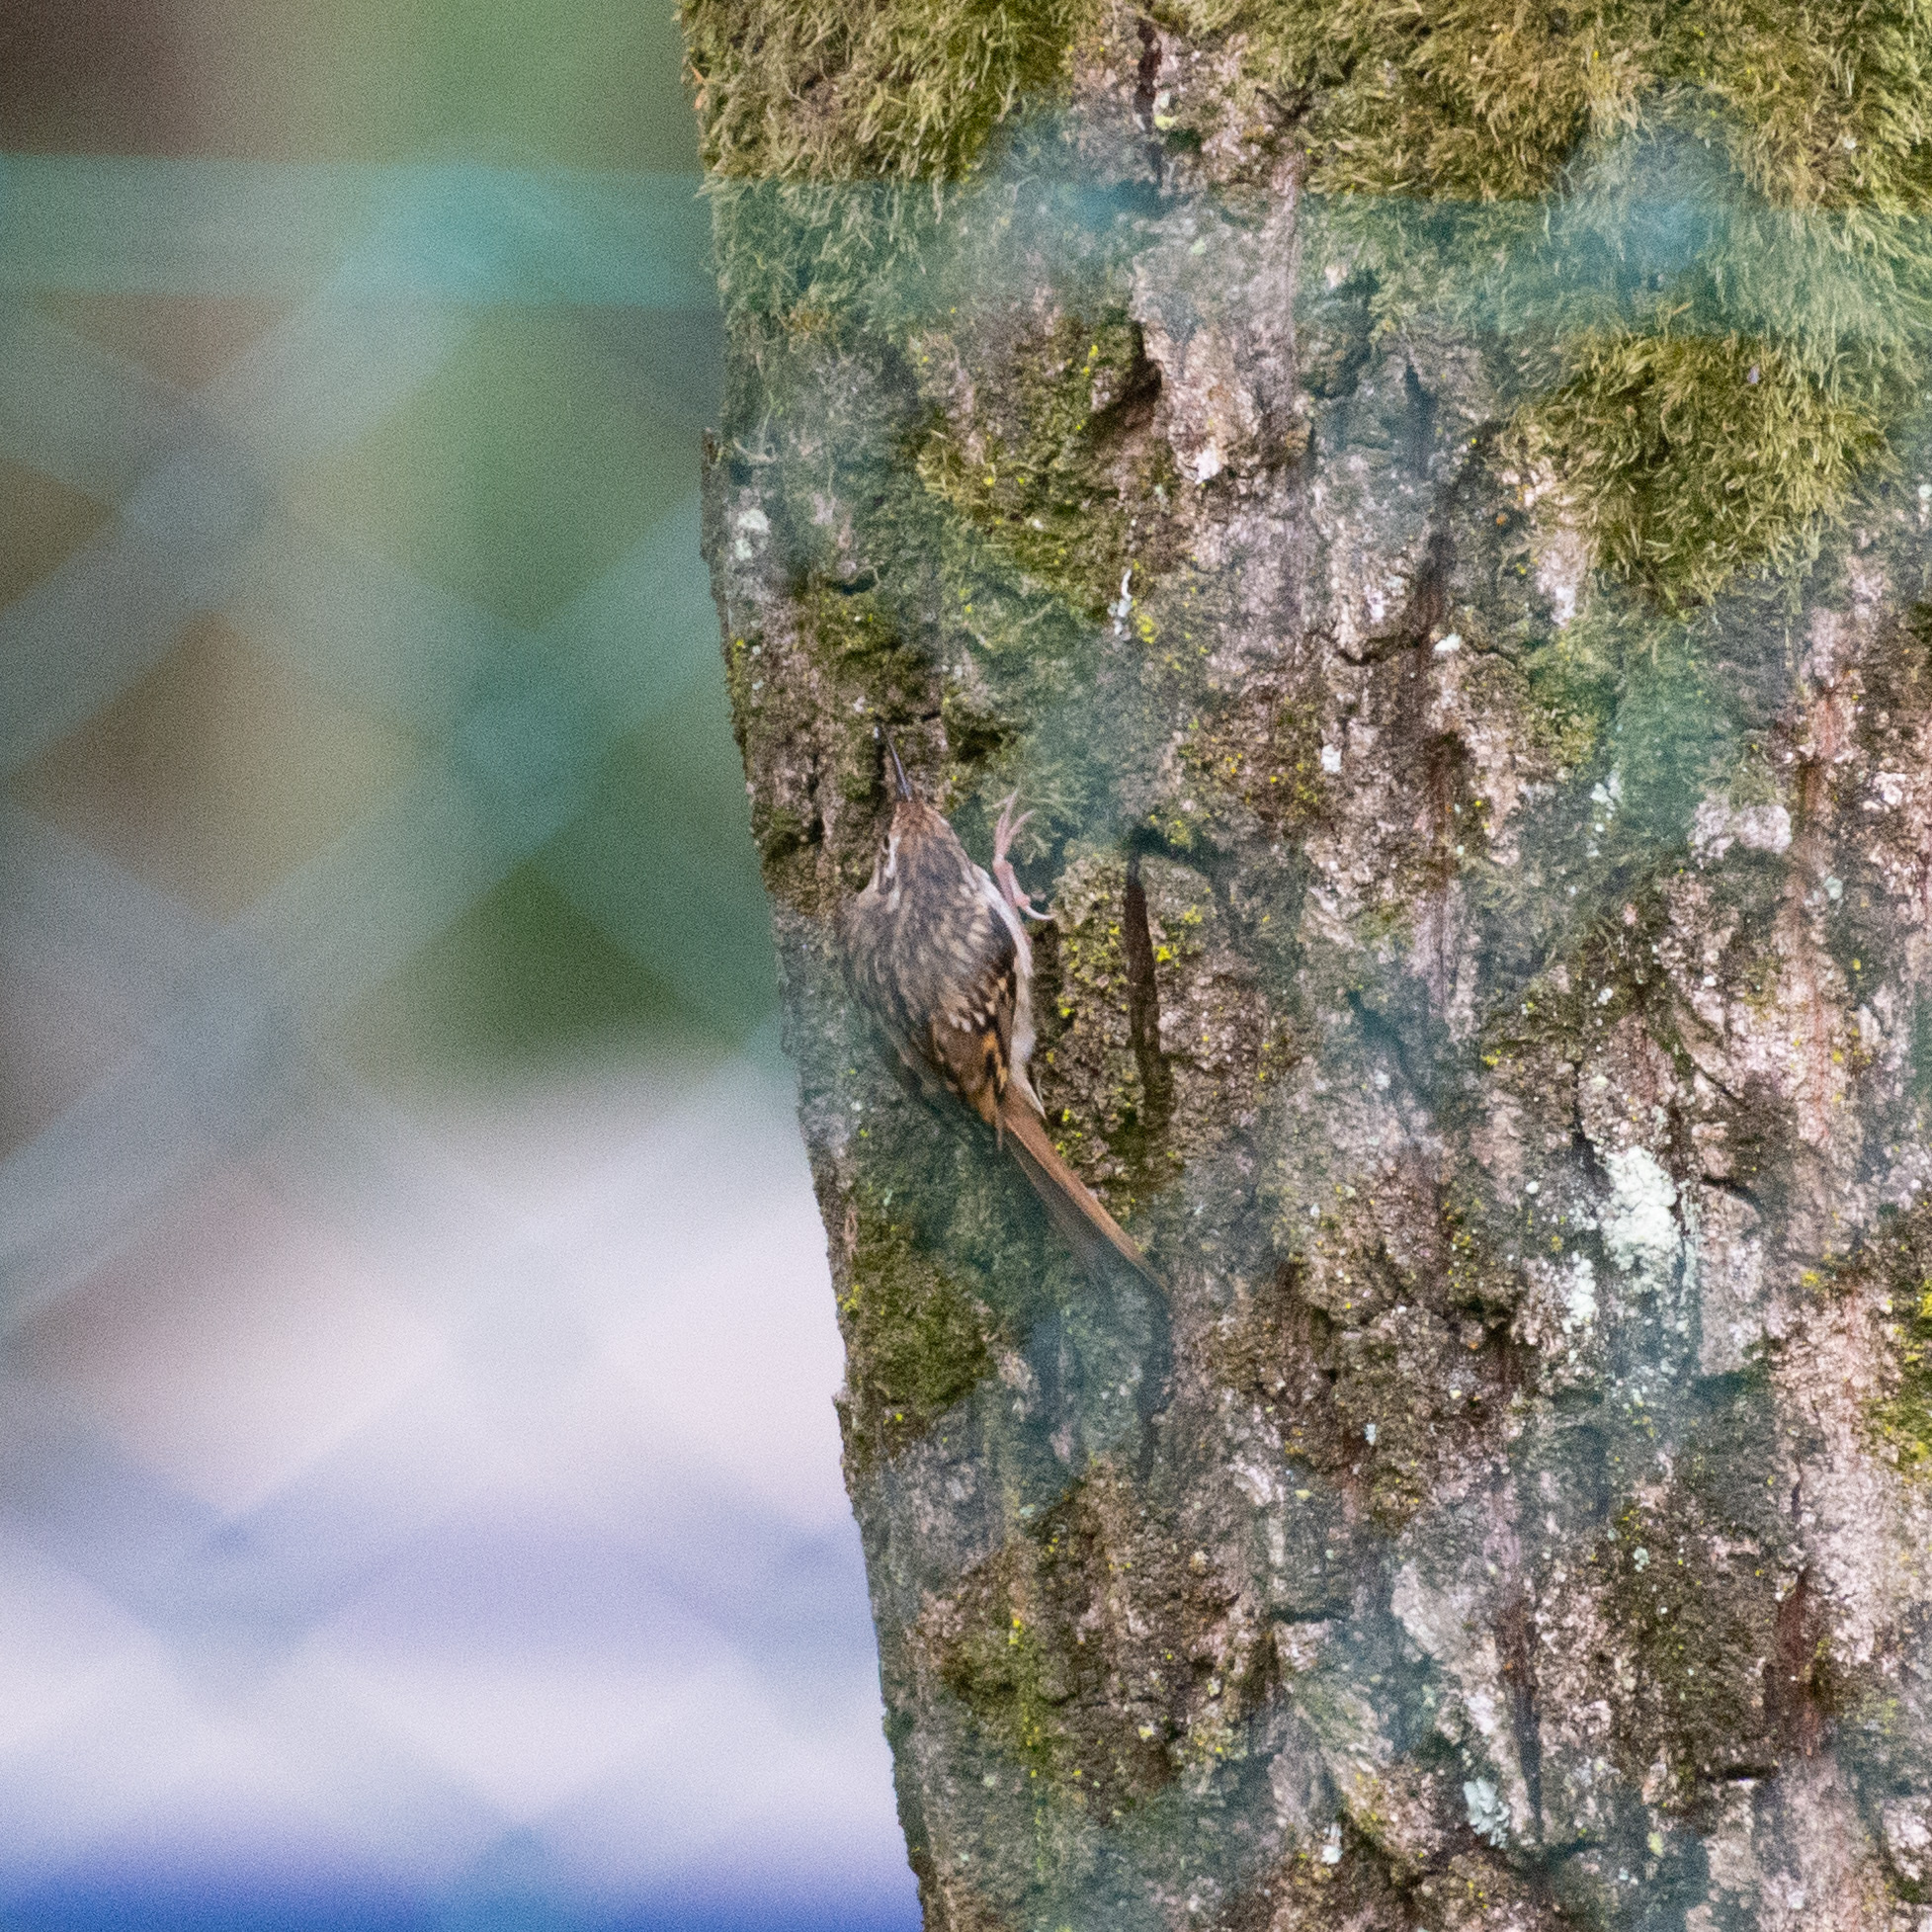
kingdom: Animalia
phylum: Chordata
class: Aves
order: Passeriformes
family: Certhiidae
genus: Certhia
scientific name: Certhia brachydactyla
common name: Short-toed treecreeper
